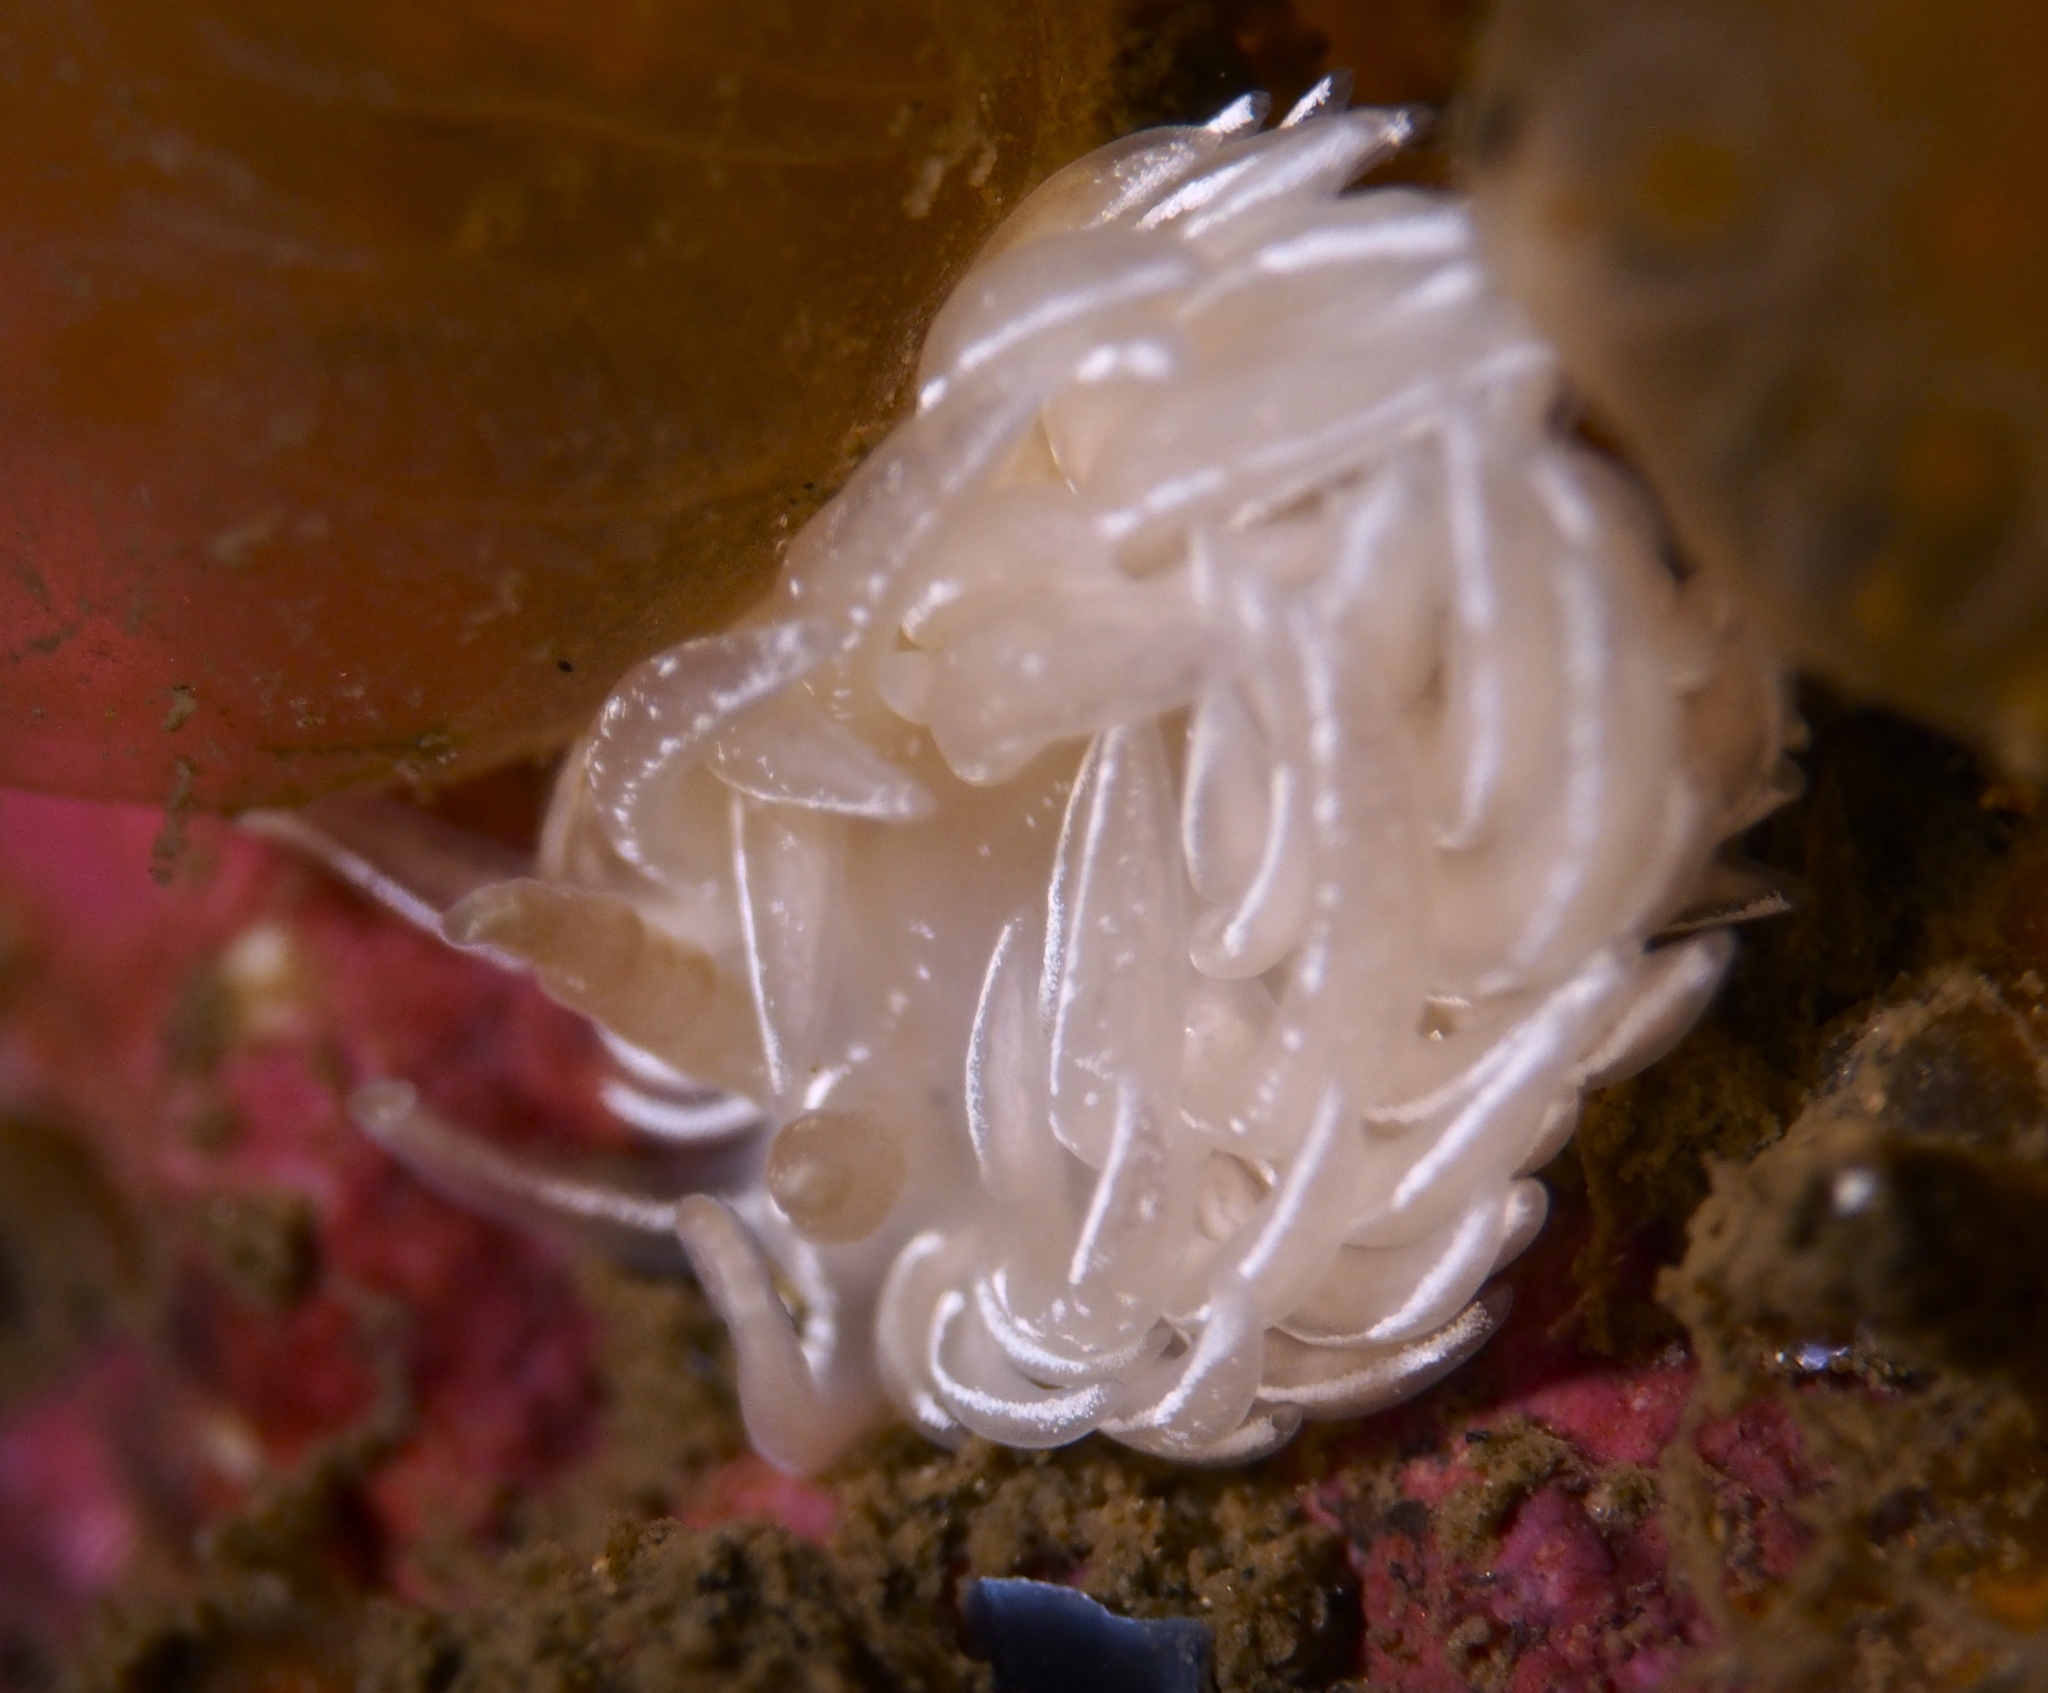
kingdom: Animalia
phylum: Mollusca
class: Gastropoda
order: Nudibranchia
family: Facelinidae
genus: Favorinus
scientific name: Favorinus blianus
